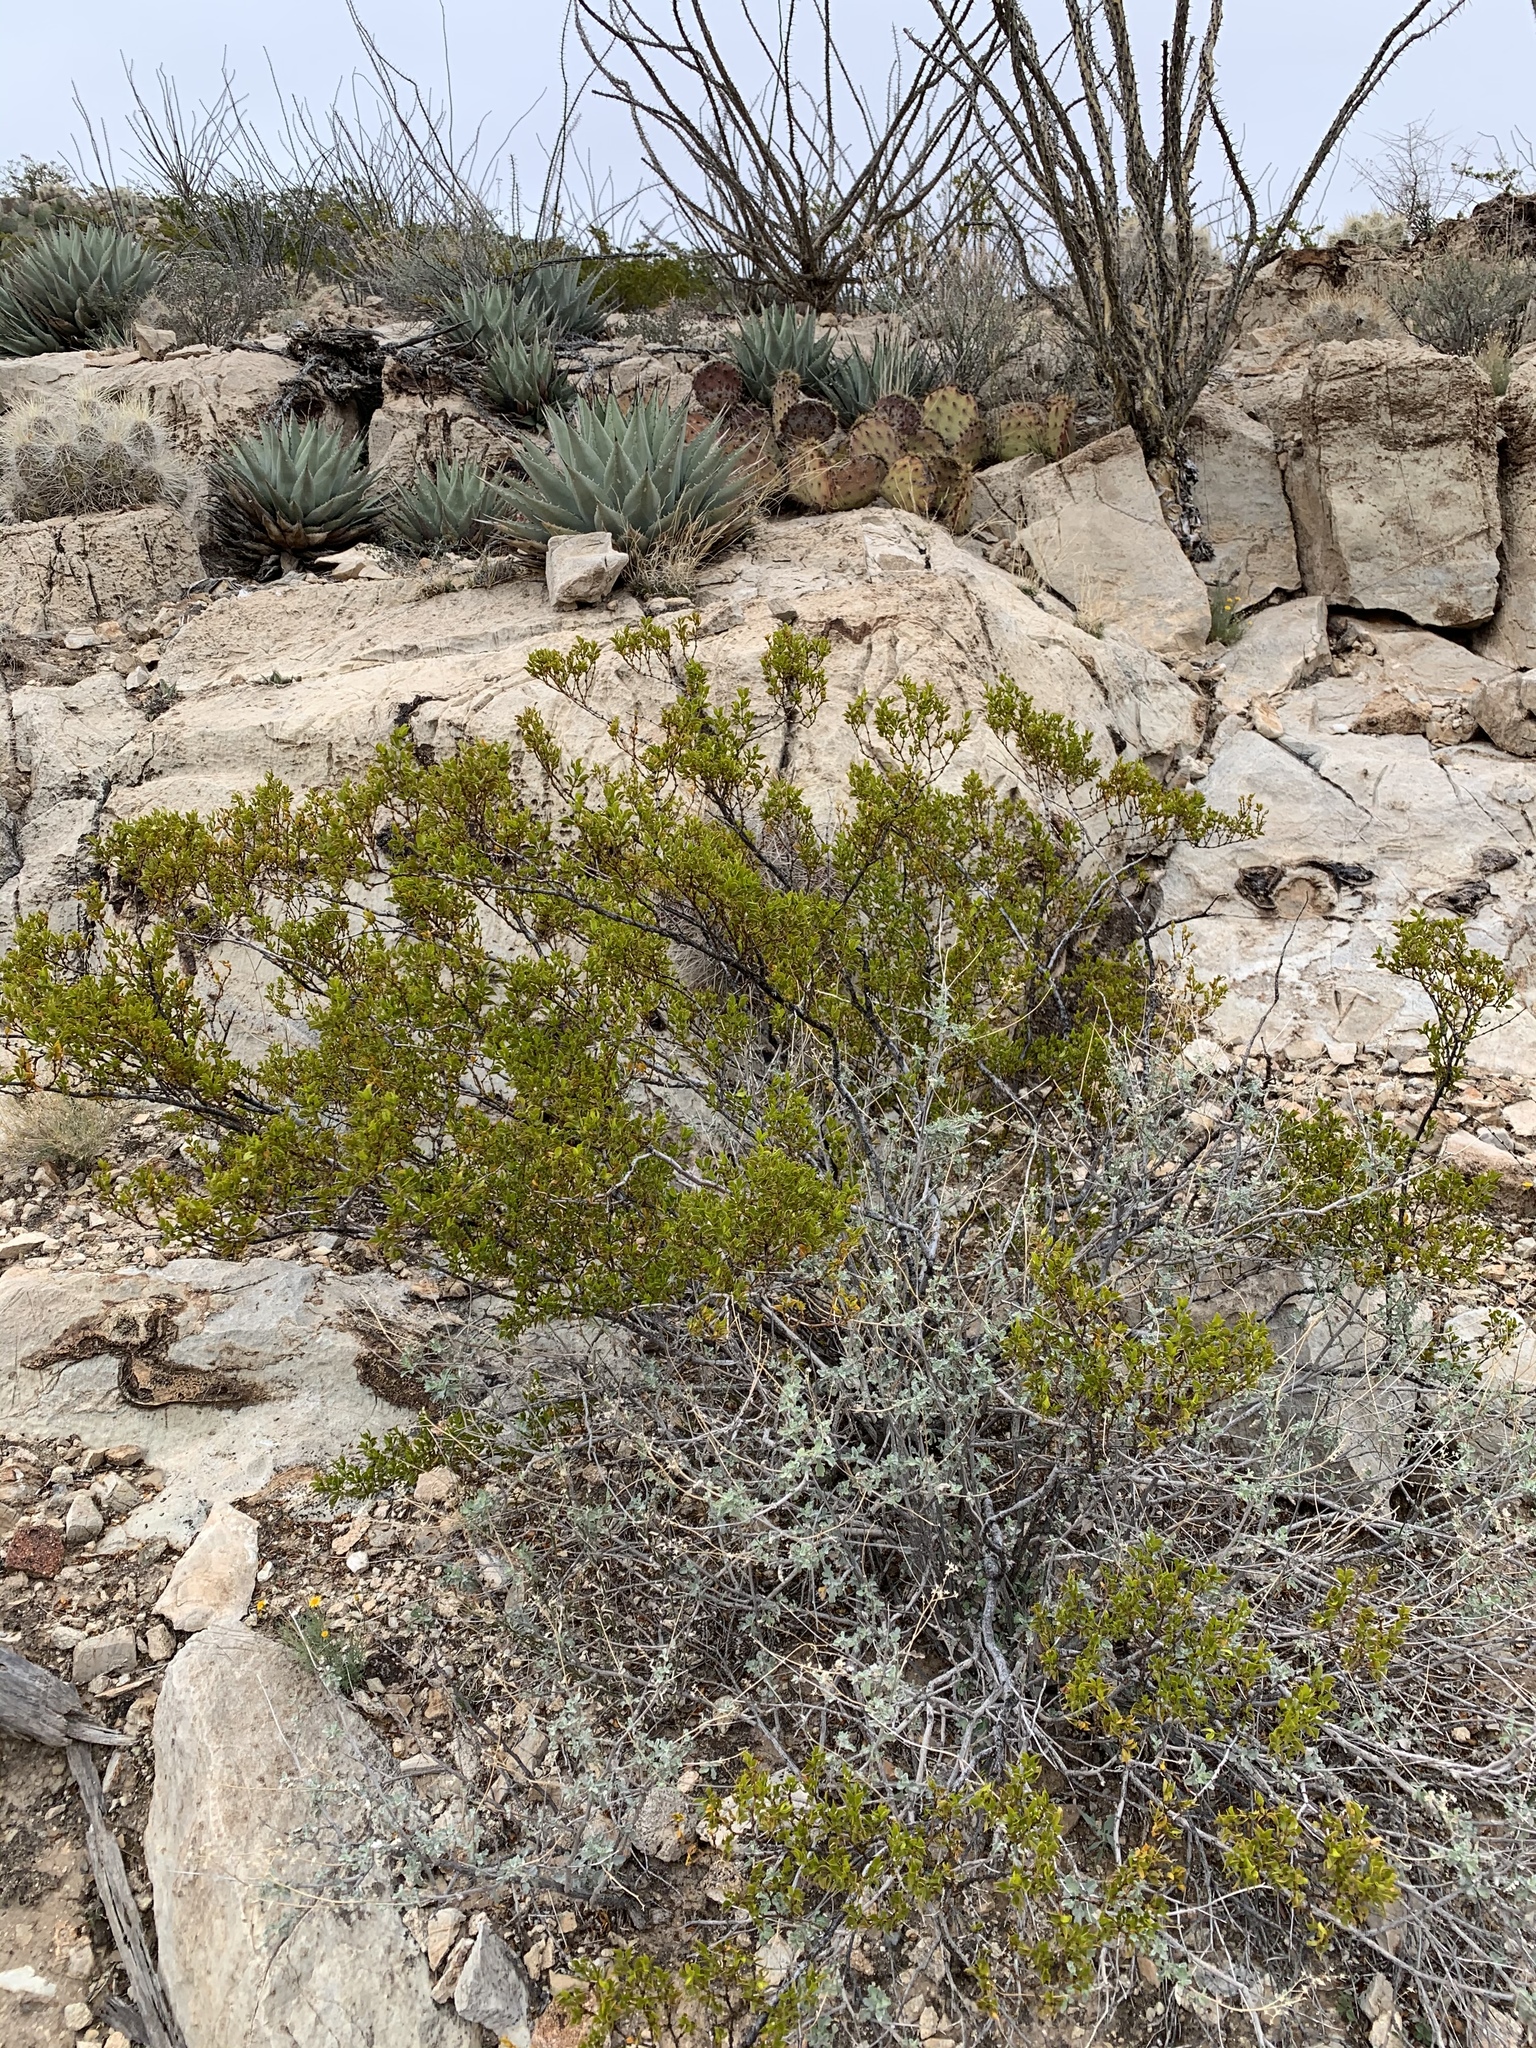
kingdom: Plantae
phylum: Tracheophyta
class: Magnoliopsida
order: Zygophyllales
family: Zygophyllaceae
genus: Larrea
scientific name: Larrea tridentata
